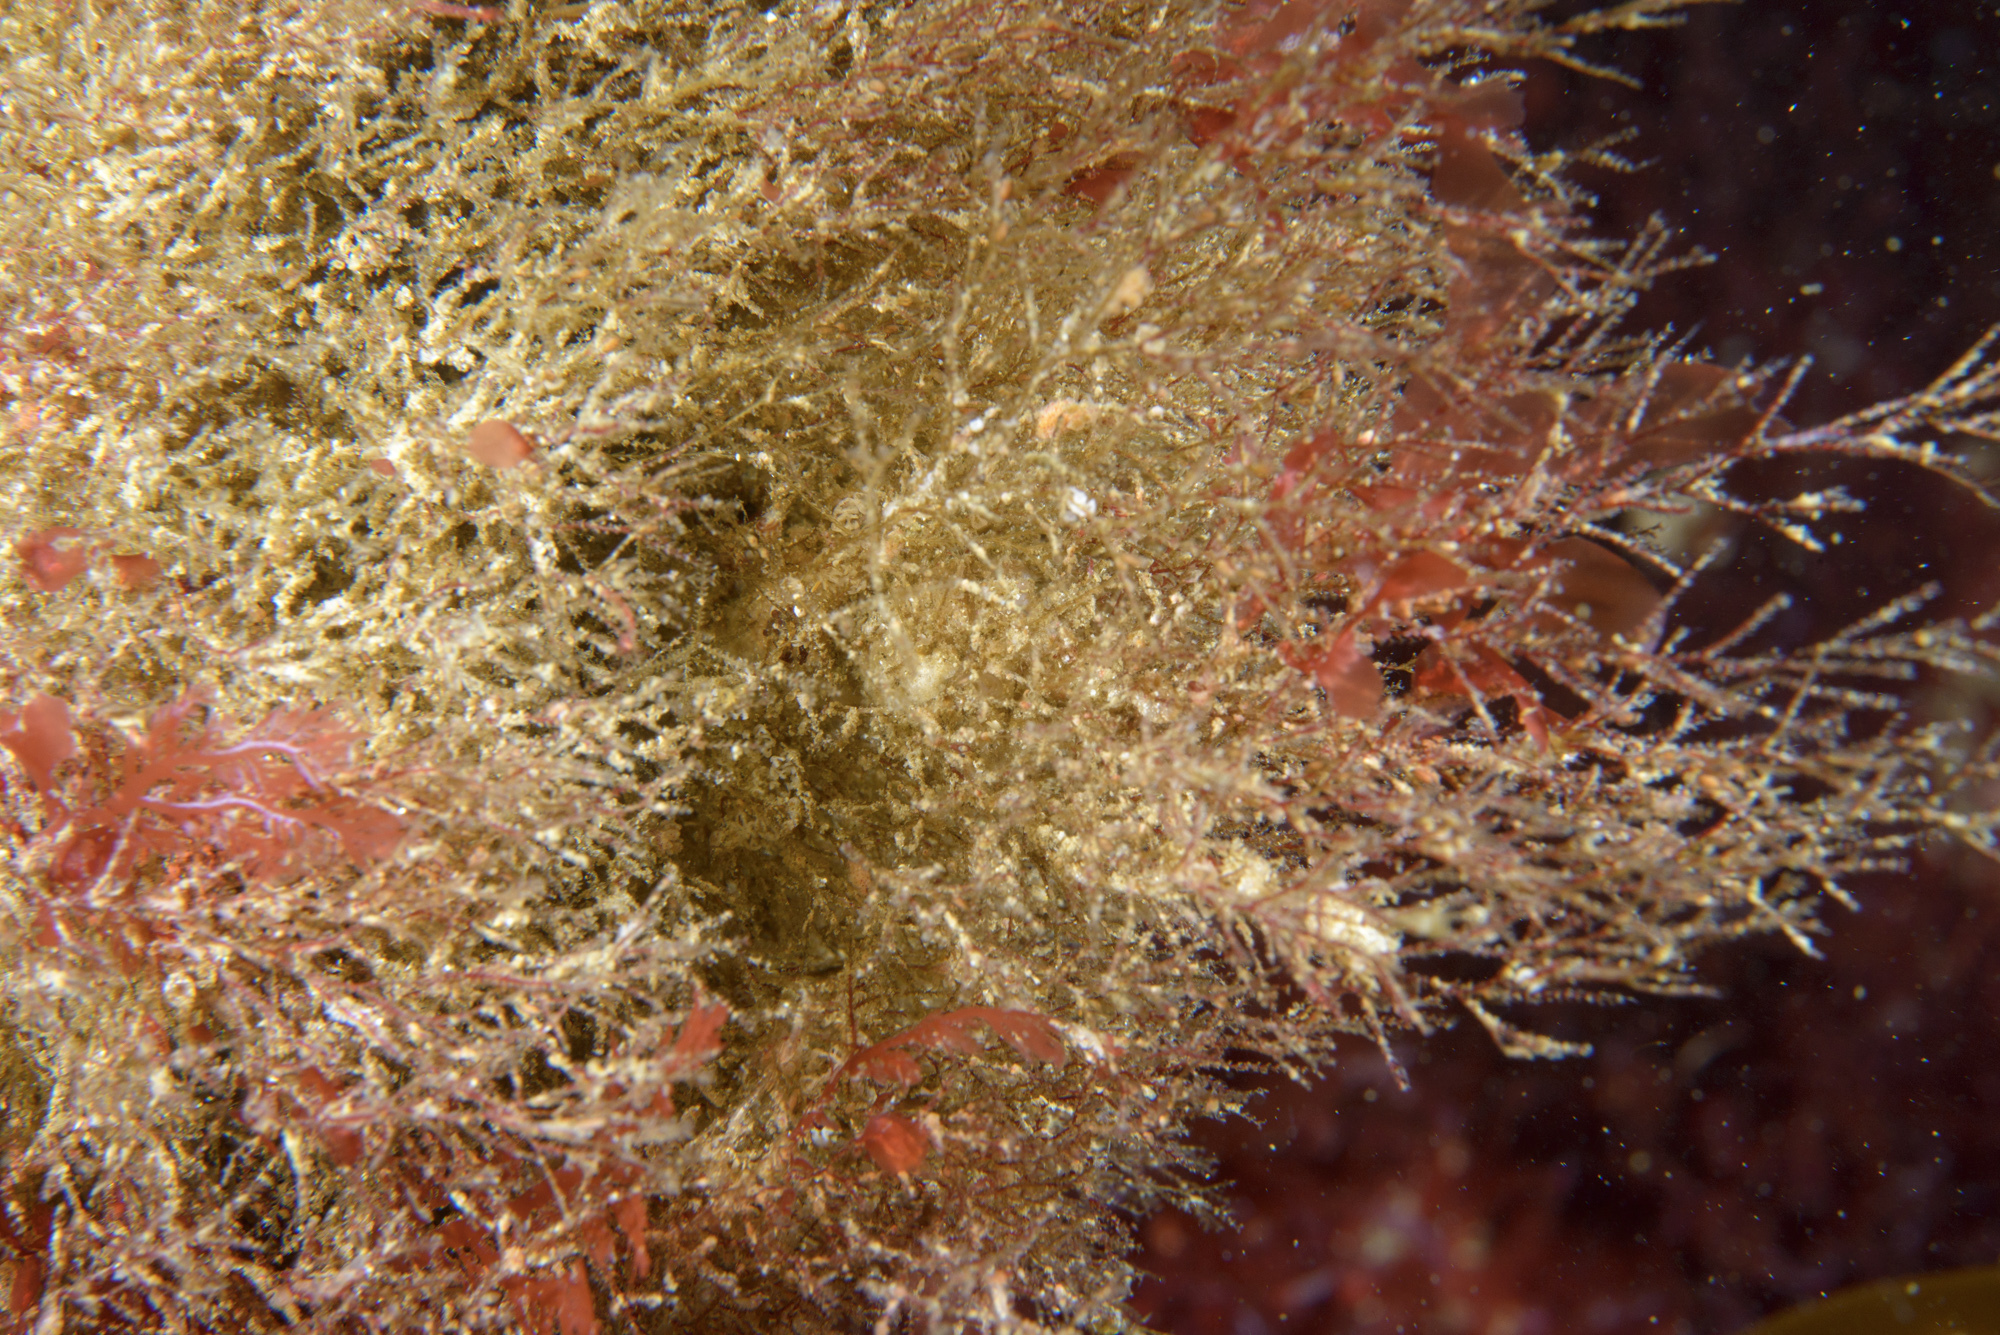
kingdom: Animalia
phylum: Mollusca
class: Gastropoda
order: Nudibranchia
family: Dotidae
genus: Doto
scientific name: Doto eireana
